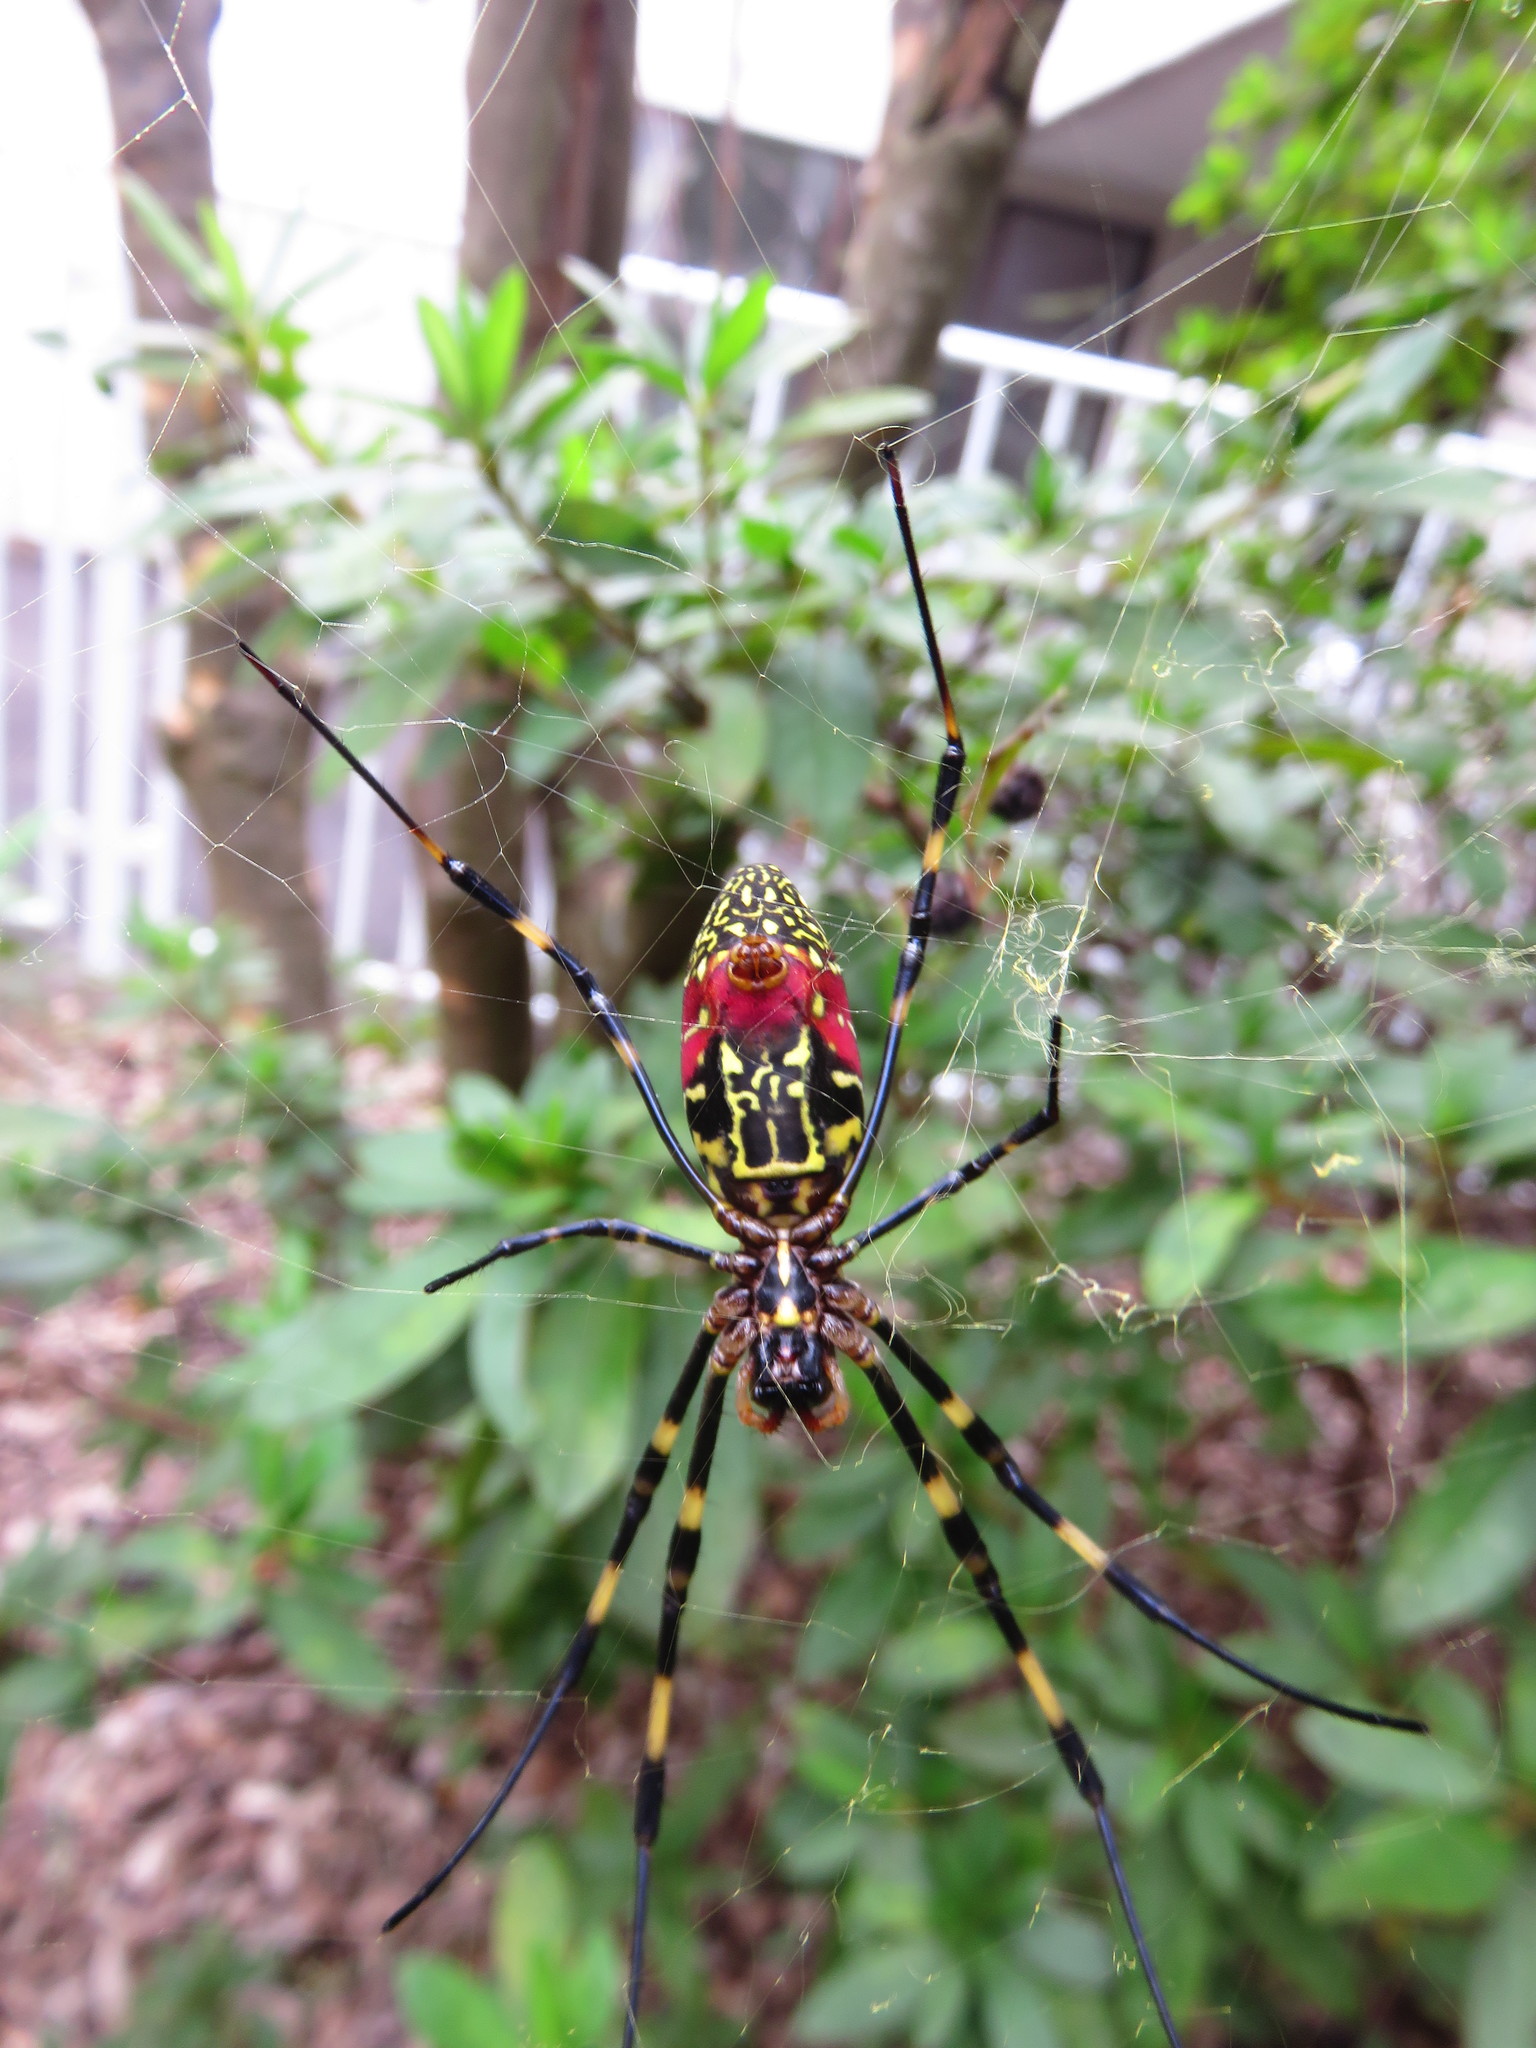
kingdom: Animalia
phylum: Arthropoda
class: Arachnida
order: Araneae
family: Araneidae
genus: Trichonephila
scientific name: Trichonephila clavata
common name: Jorō spider
